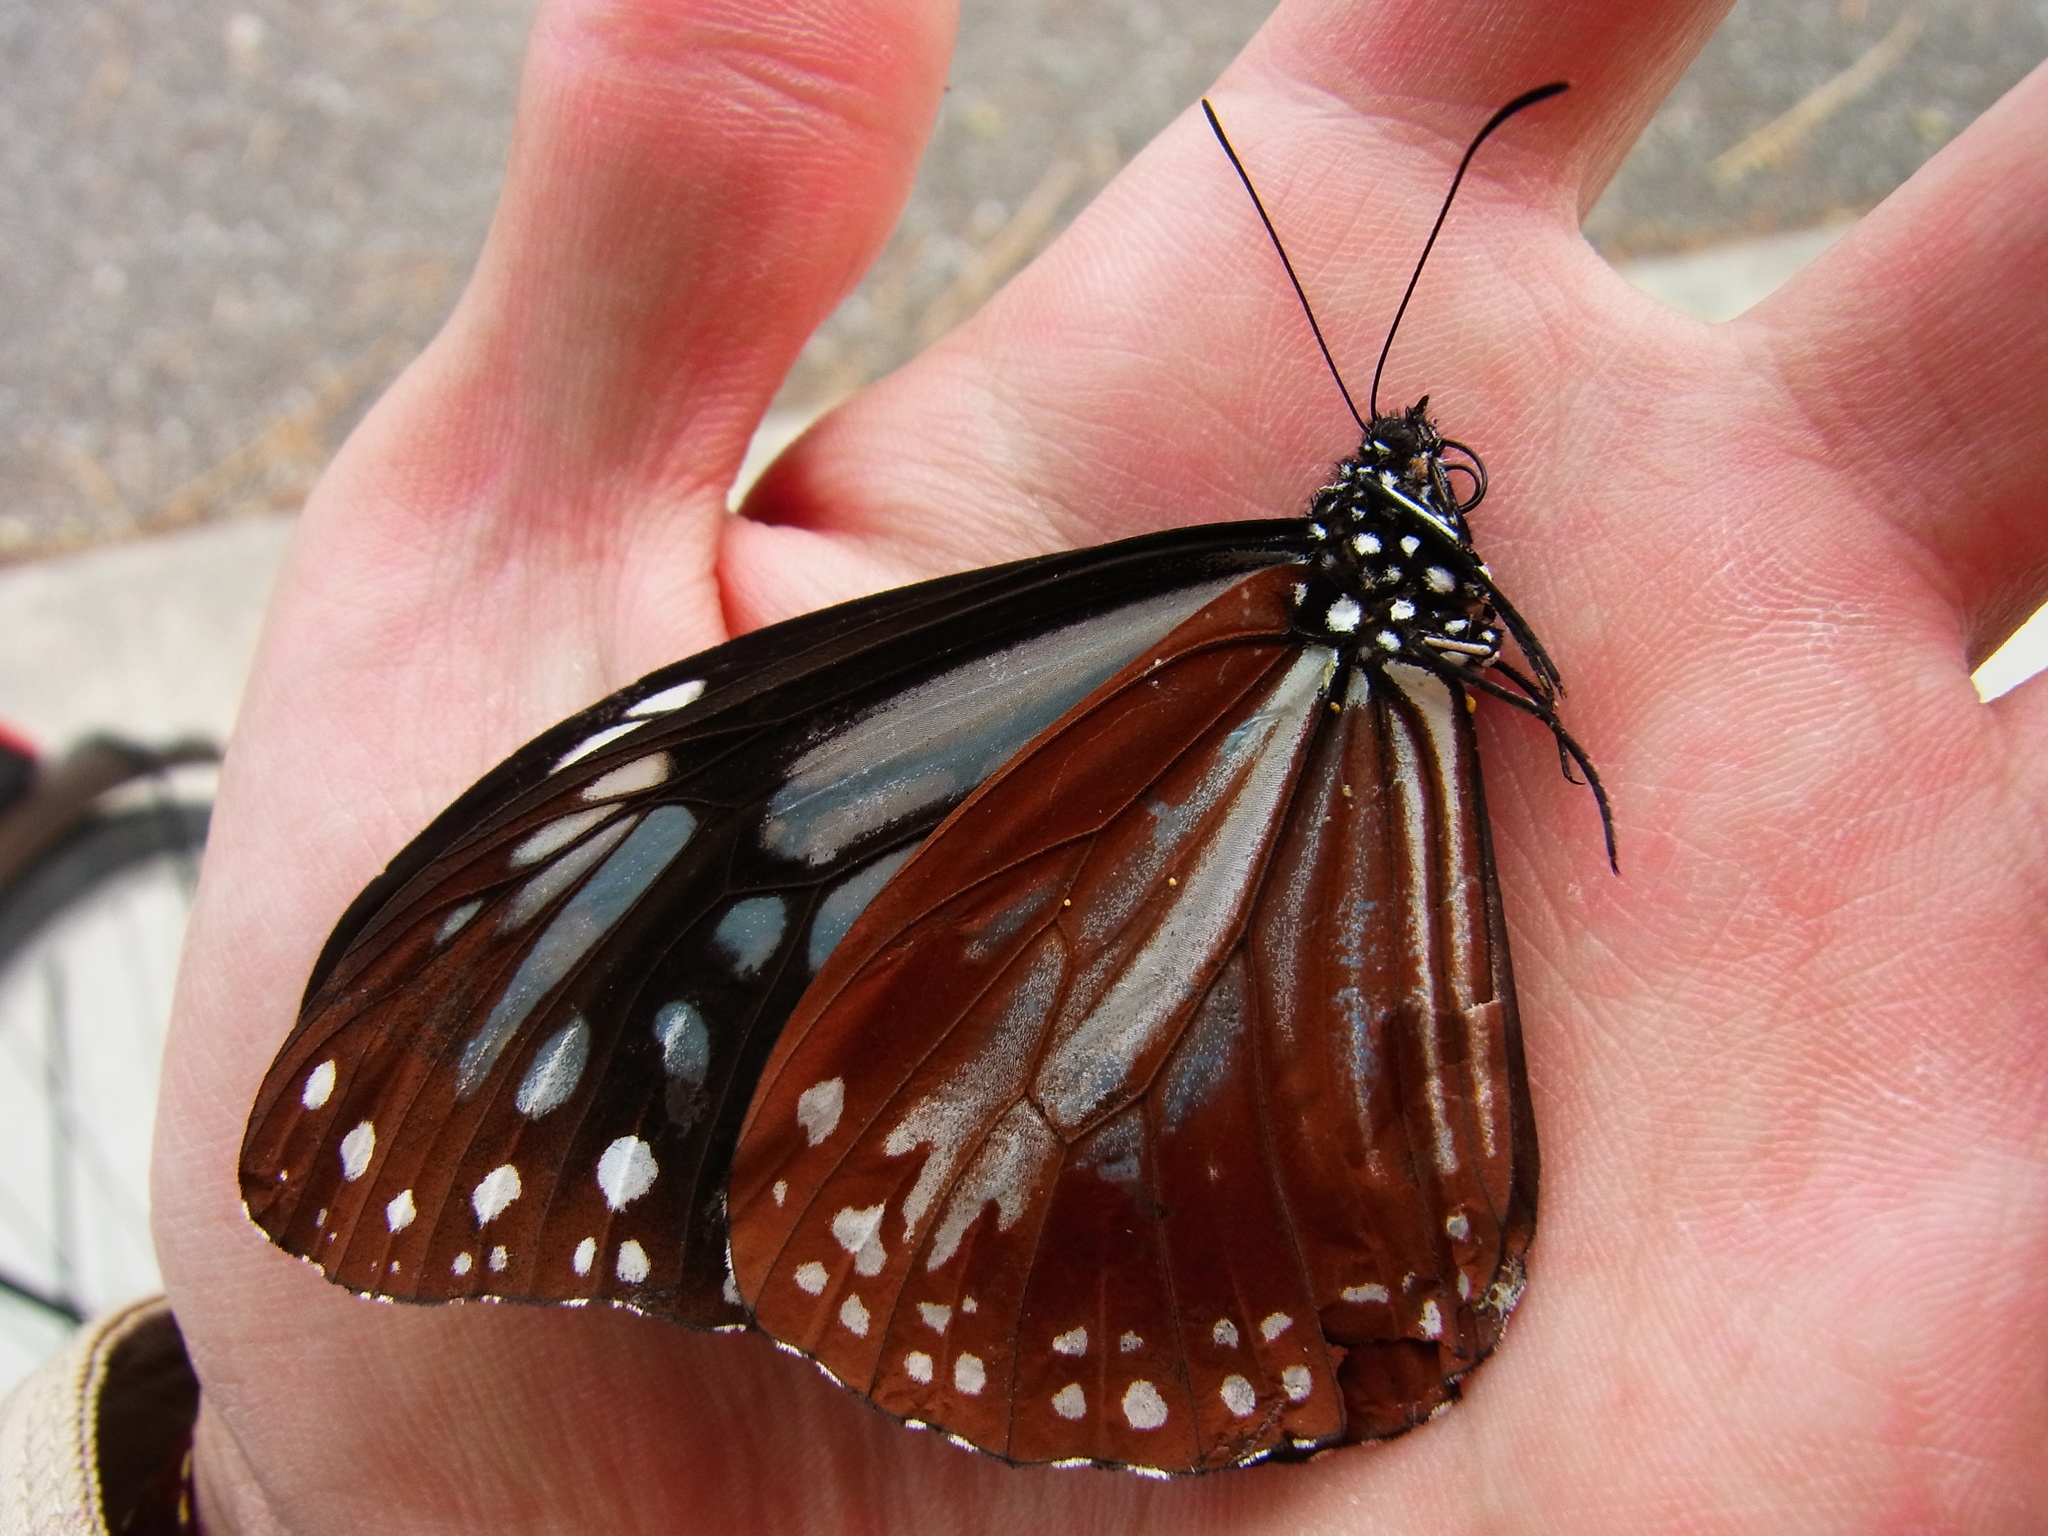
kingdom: Animalia
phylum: Arthropoda
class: Insecta
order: Lepidoptera
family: Nymphalidae
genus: Parantica
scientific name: Parantica sita
